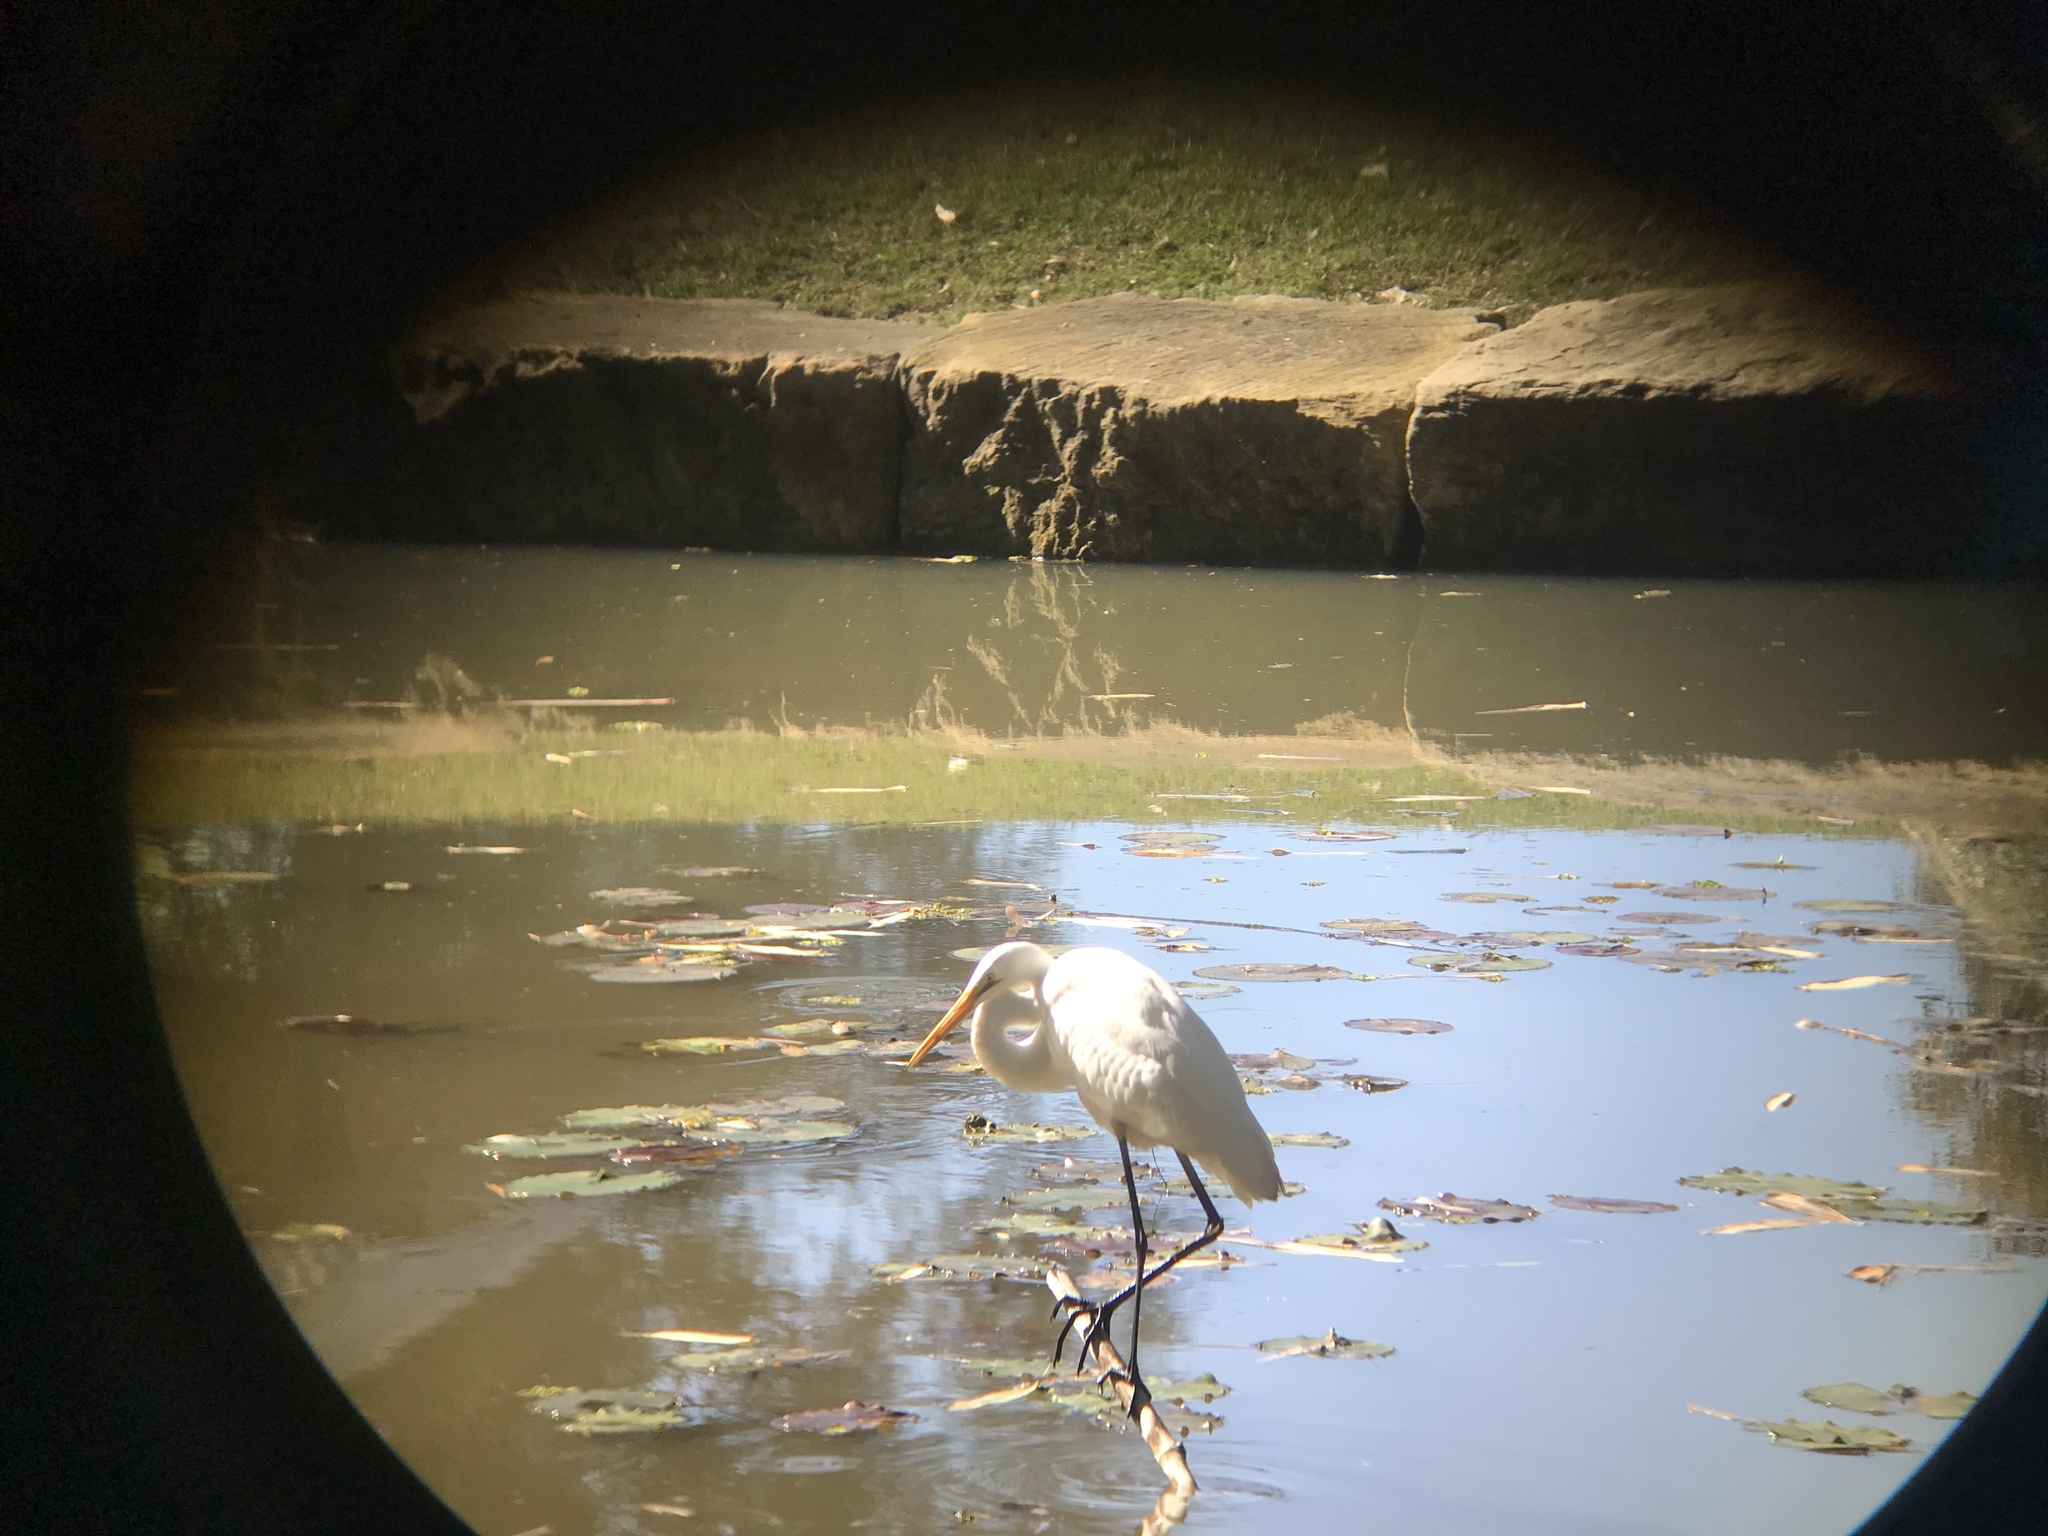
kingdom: Animalia
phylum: Chordata
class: Aves
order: Pelecaniformes
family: Ardeidae
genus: Ardea
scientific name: Ardea alba
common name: Great egret
